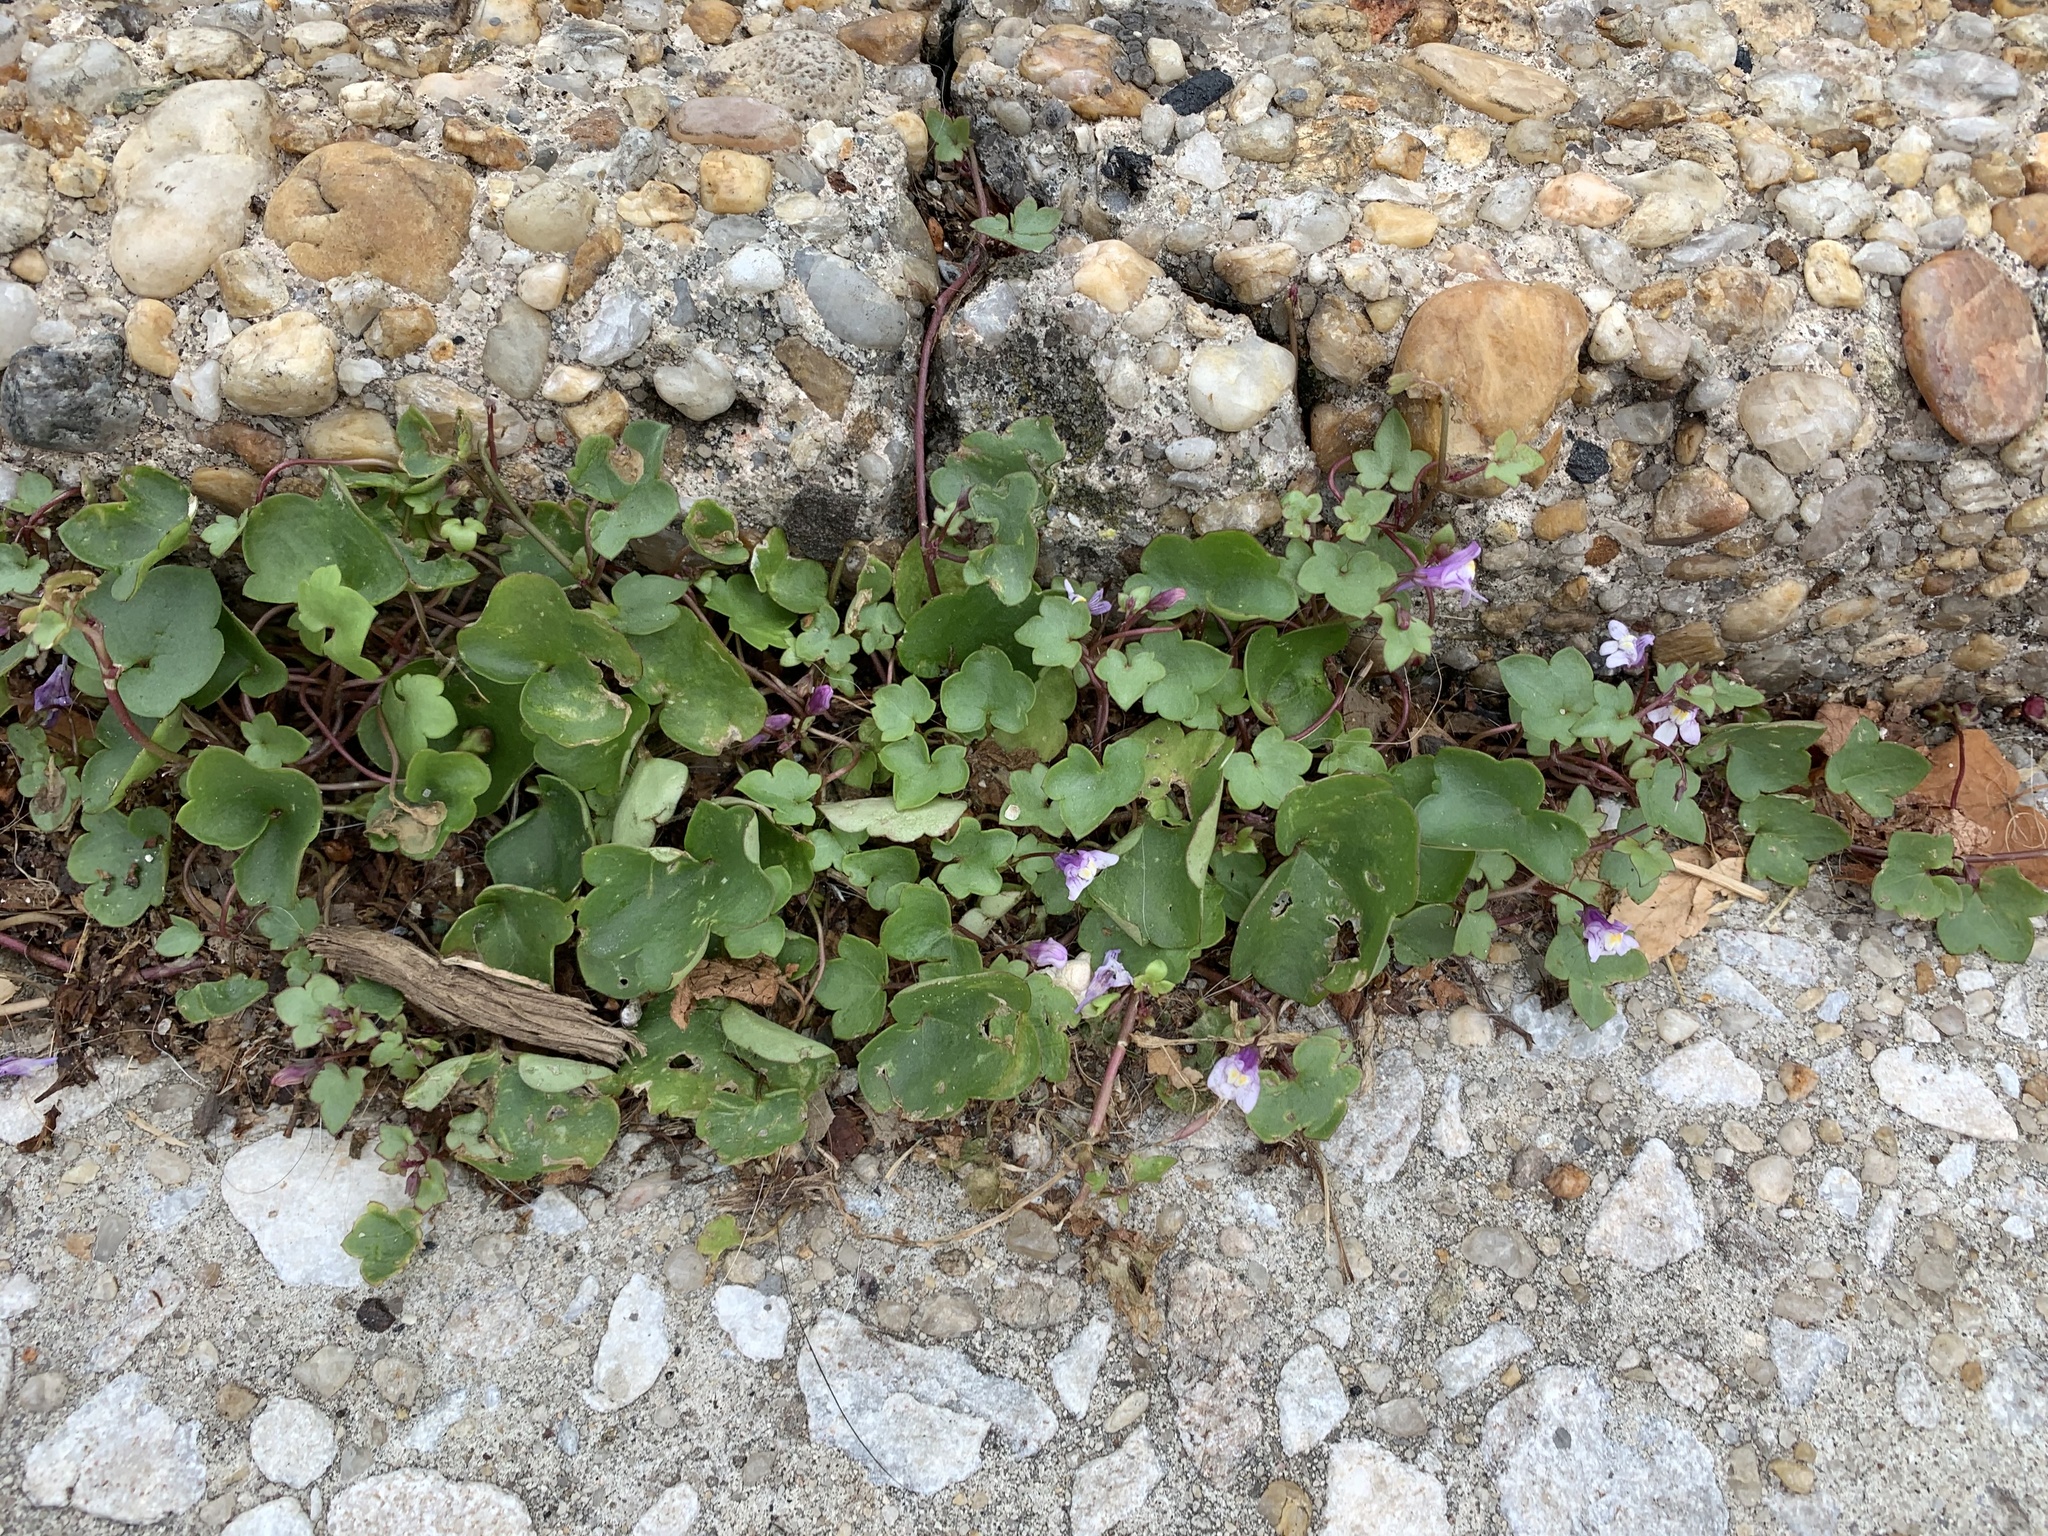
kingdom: Plantae
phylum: Tracheophyta
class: Magnoliopsida
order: Lamiales
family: Plantaginaceae
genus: Cymbalaria
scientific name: Cymbalaria muralis
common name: Ivy-leaved toadflax
